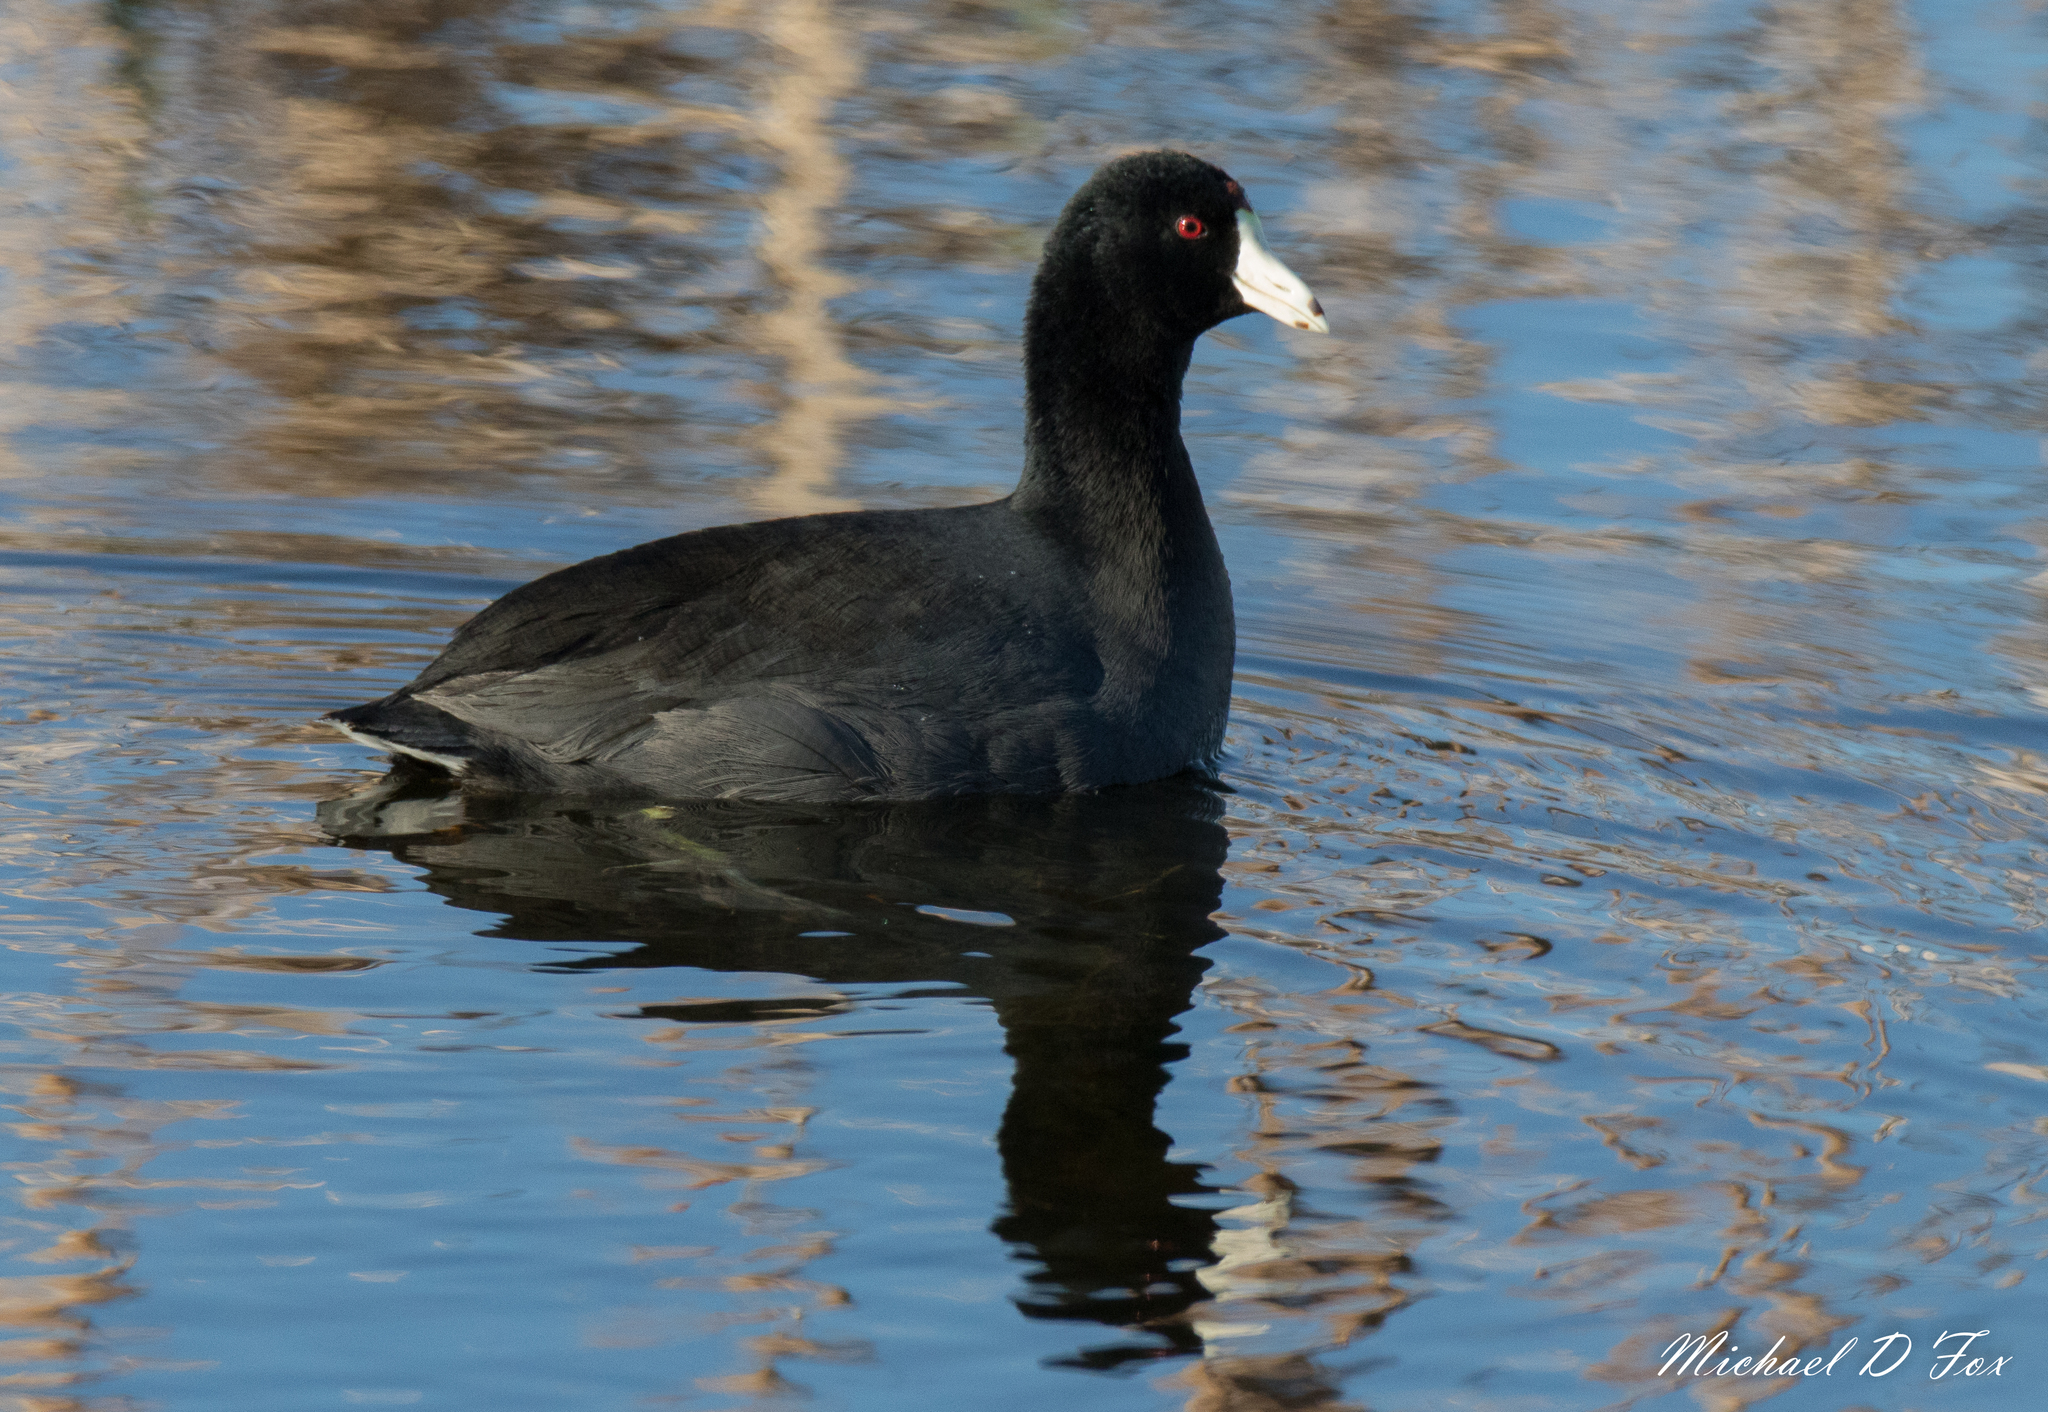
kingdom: Animalia
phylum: Chordata
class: Aves
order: Gruiformes
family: Rallidae
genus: Fulica
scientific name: Fulica americana
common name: American coot
